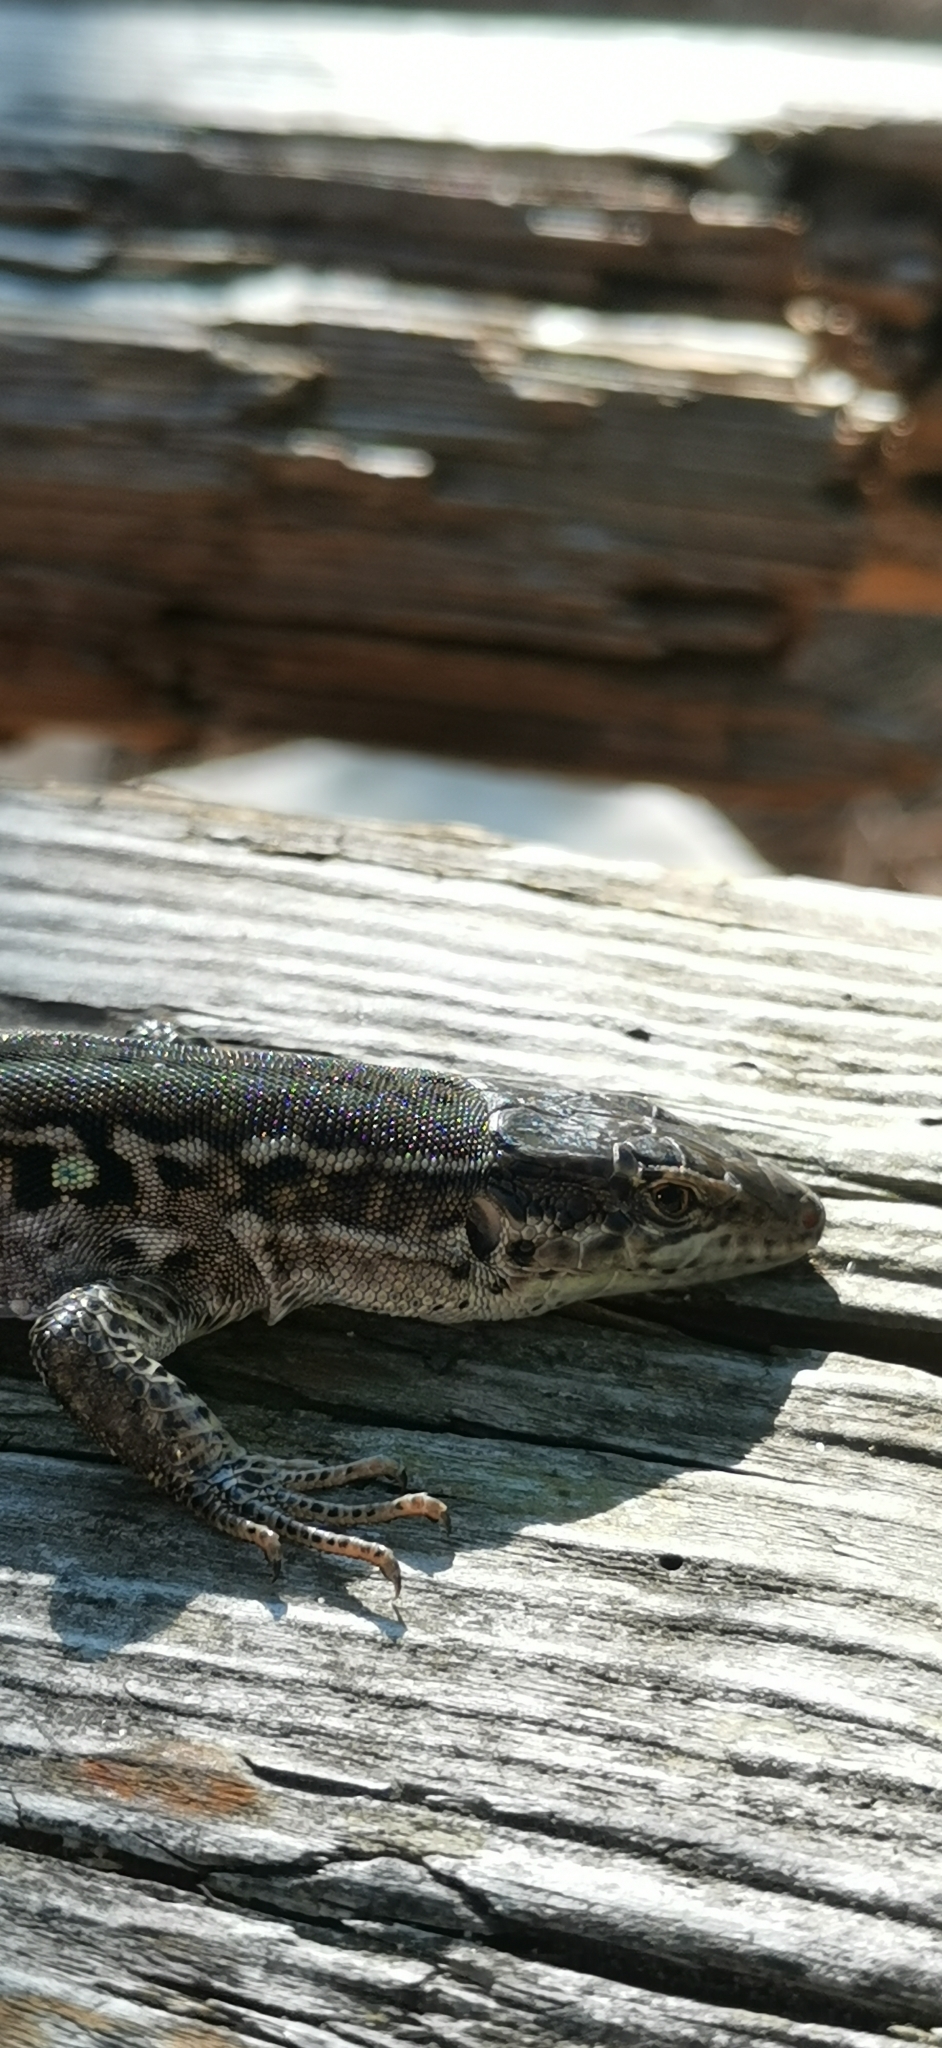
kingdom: Animalia
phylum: Chordata
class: Squamata
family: Lacertidae
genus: Podarcis
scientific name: Podarcis siculus
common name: Italian wall lizard
